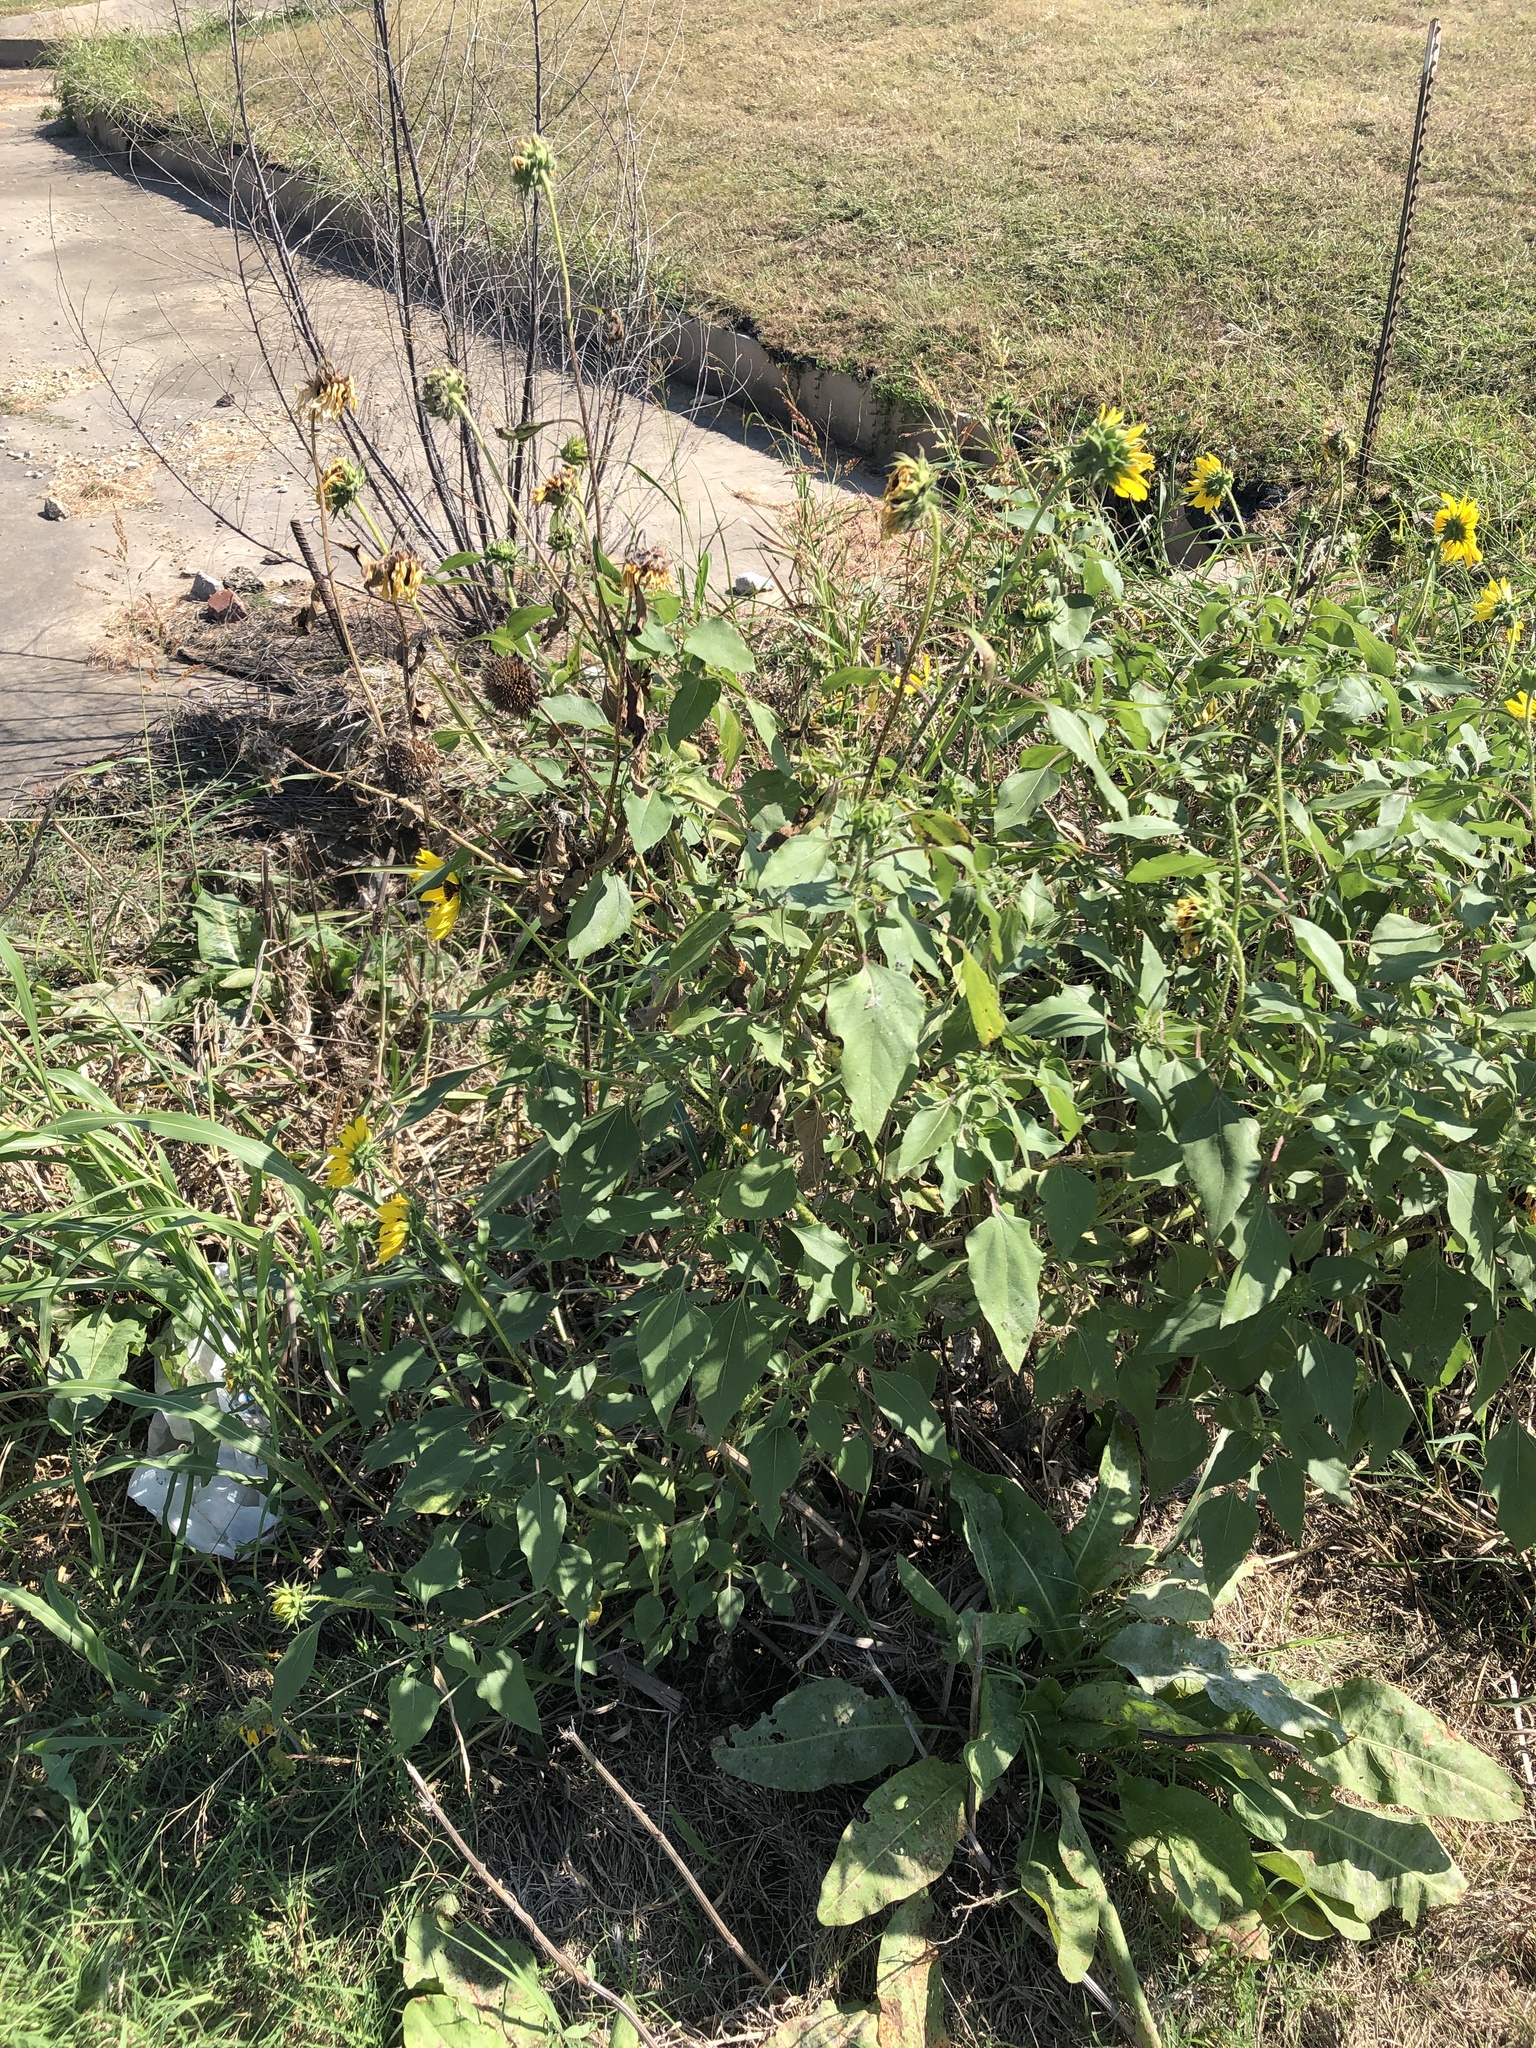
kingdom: Plantae
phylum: Tracheophyta
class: Magnoliopsida
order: Asterales
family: Asteraceae
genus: Helianthus
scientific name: Helianthus annuus
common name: Sunflower
